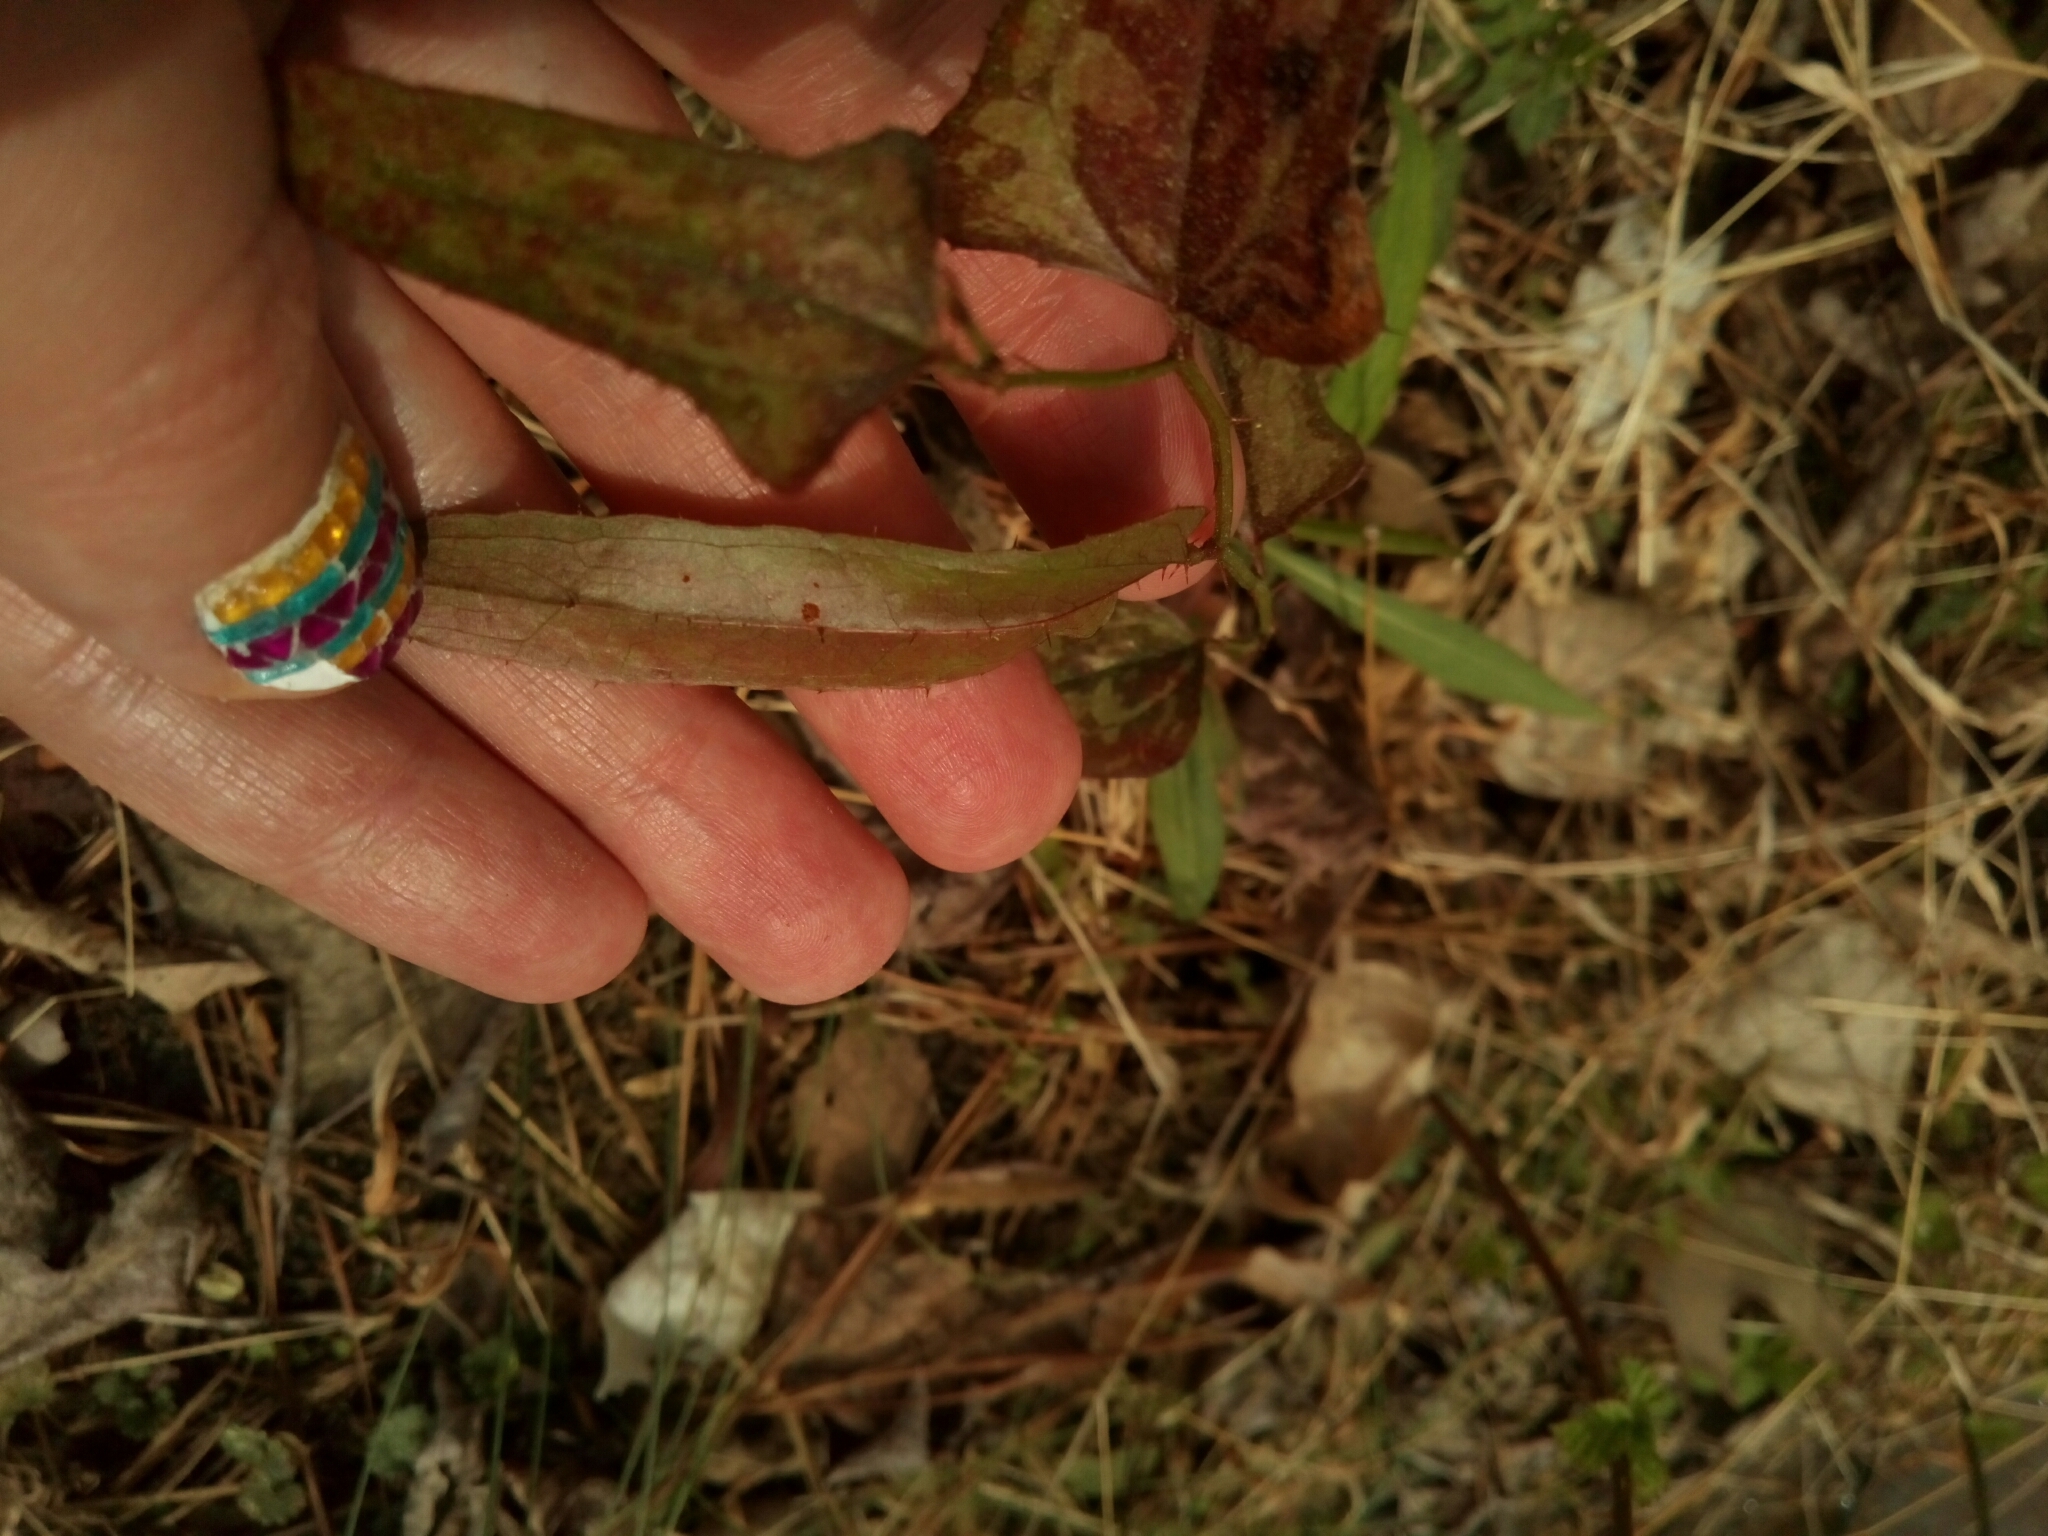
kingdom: Plantae
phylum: Tracheophyta
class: Liliopsida
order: Liliales
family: Smilacaceae
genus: Smilax
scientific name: Smilax bona-nox
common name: Catbrier
